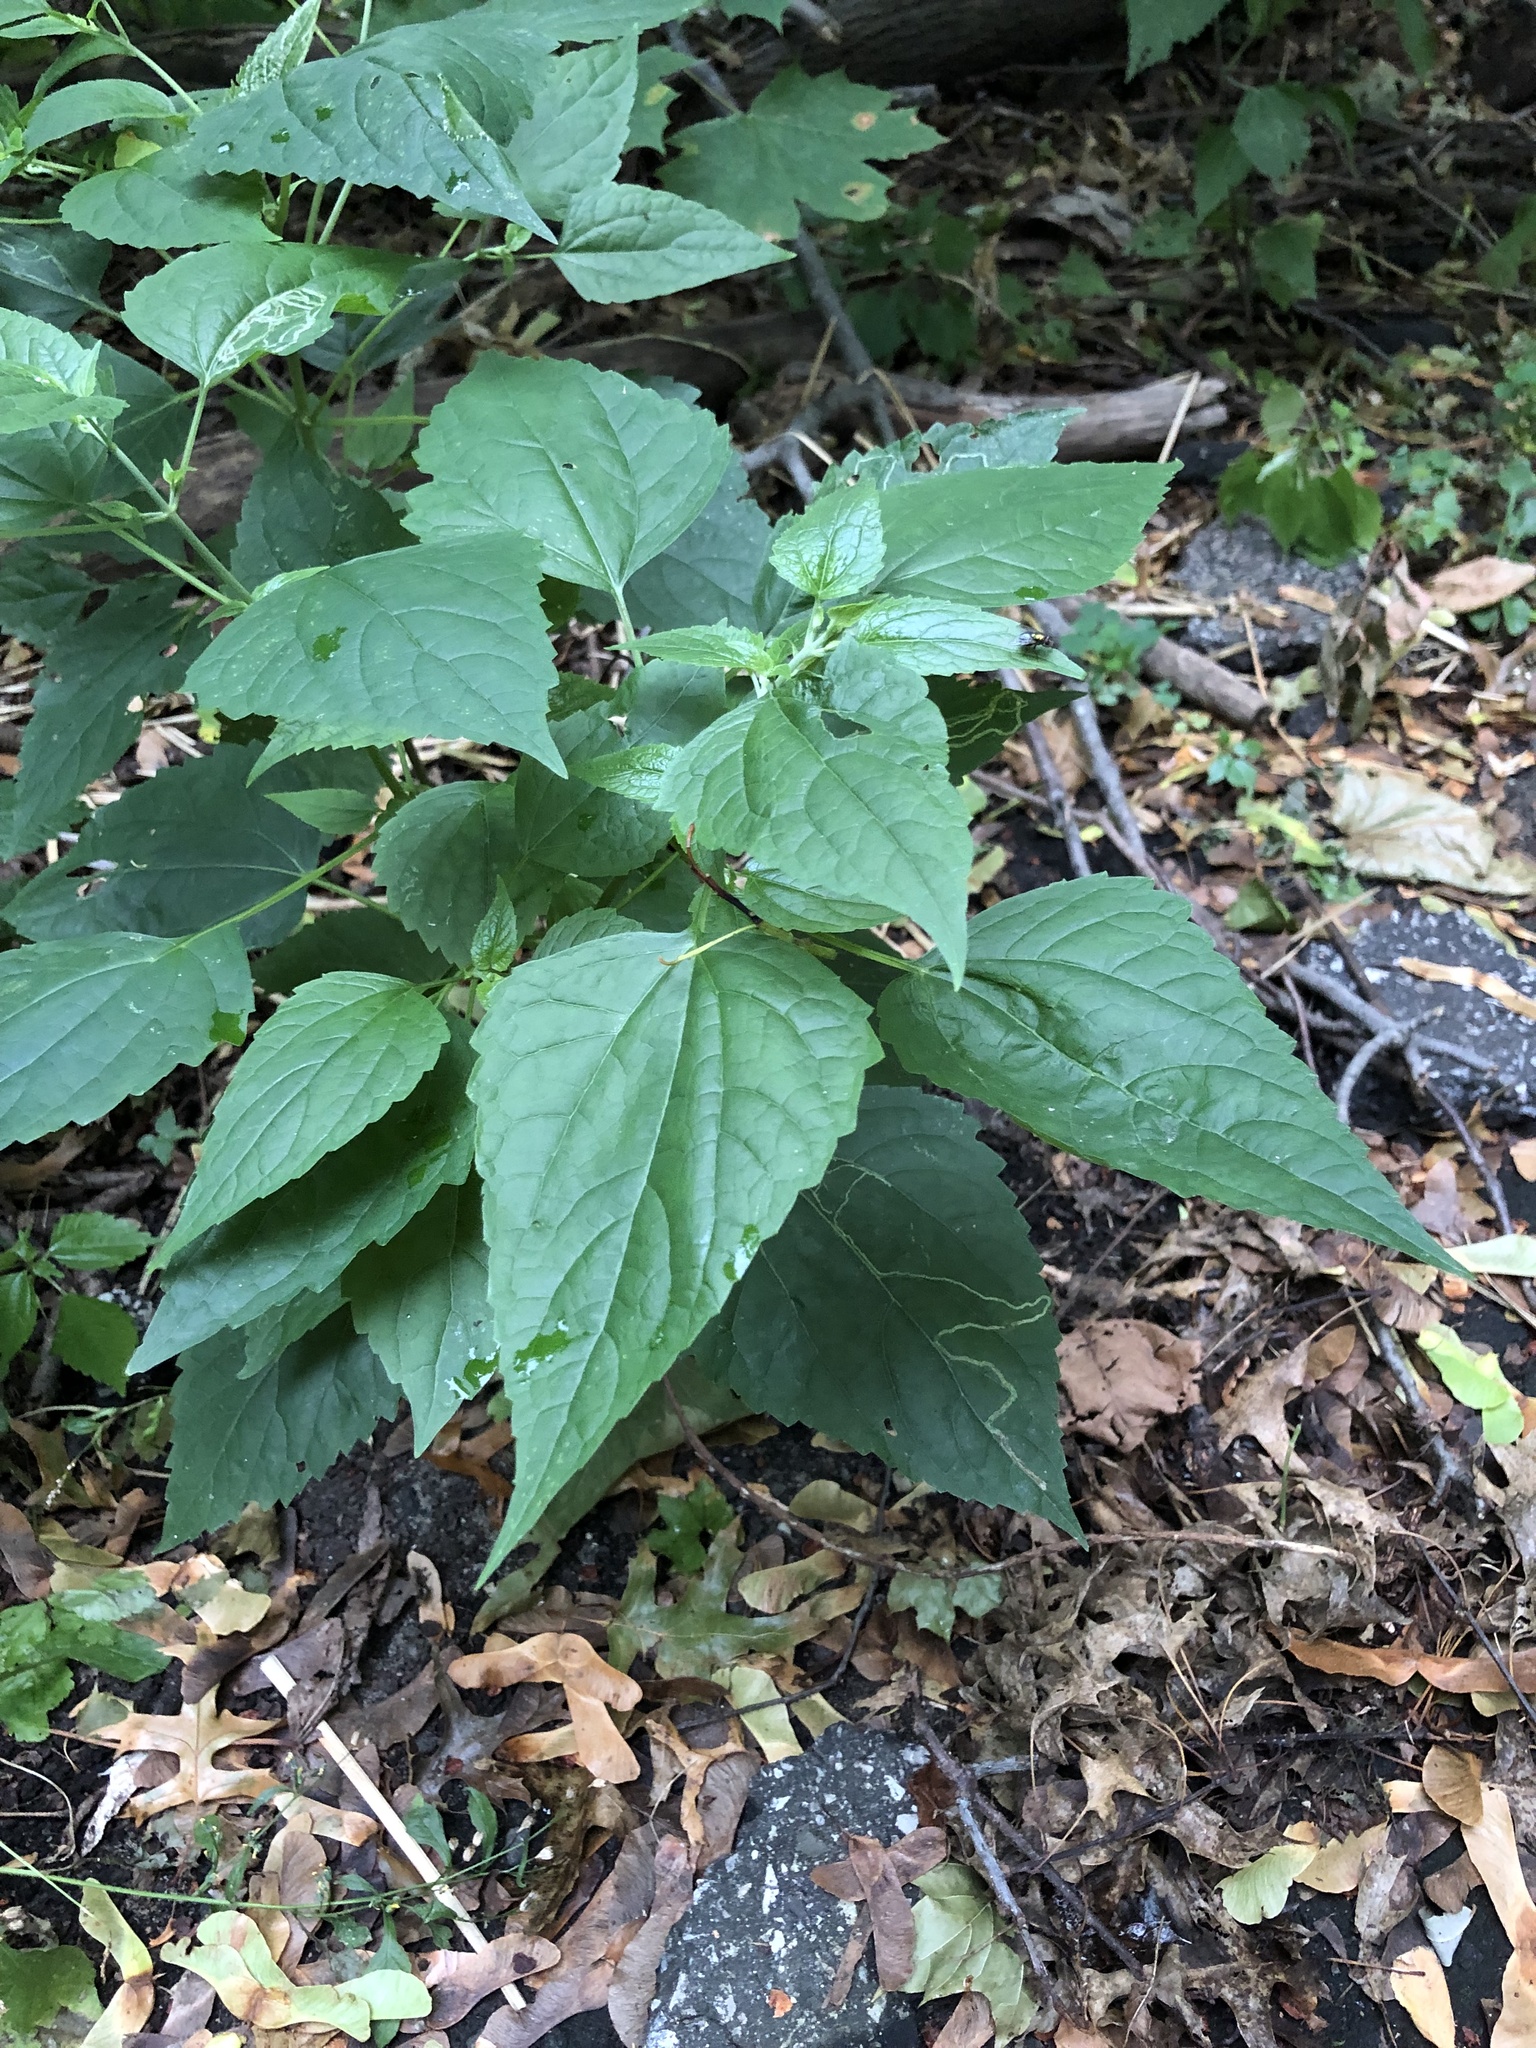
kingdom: Plantae
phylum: Tracheophyta
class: Magnoliopsida
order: Asterales
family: Asteraceae
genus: Ageratina
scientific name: Ageratina altissima
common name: White snakeroot
